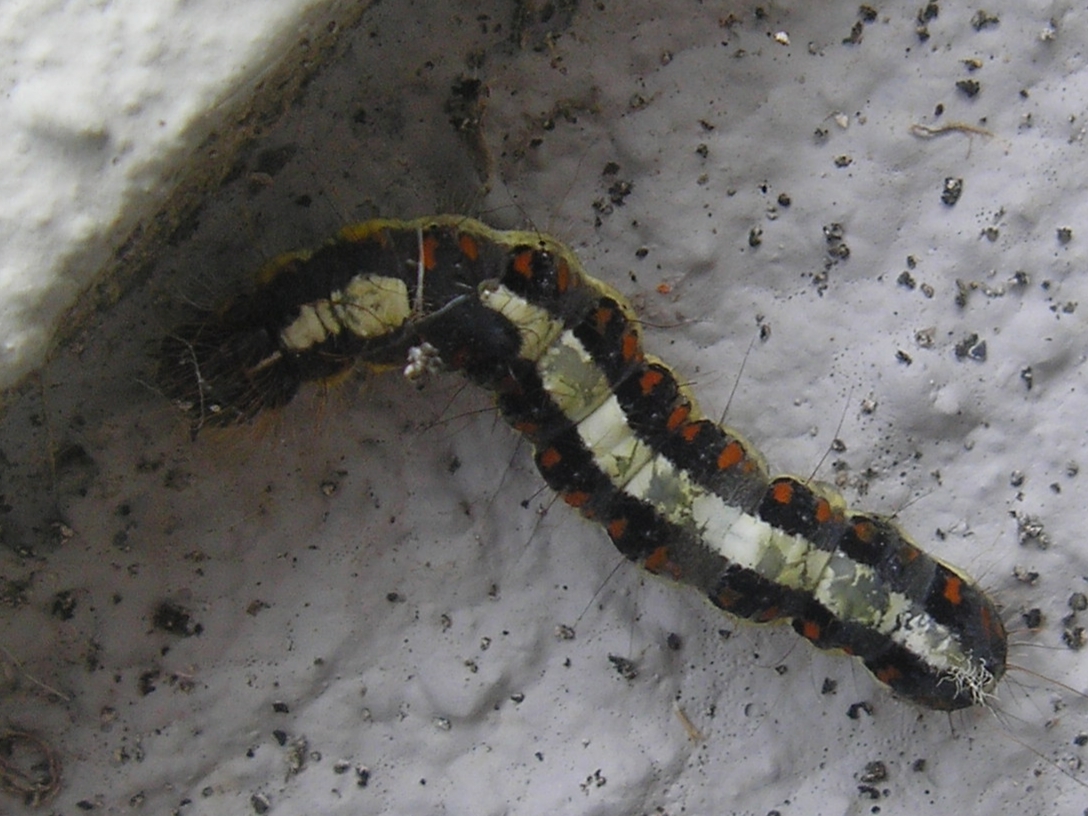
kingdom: Animalia
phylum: Arthropoda
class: Insecta
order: Lepidoptera
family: Noctuidae
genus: Acronicta
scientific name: Acronicta psi
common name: Grey dagger
